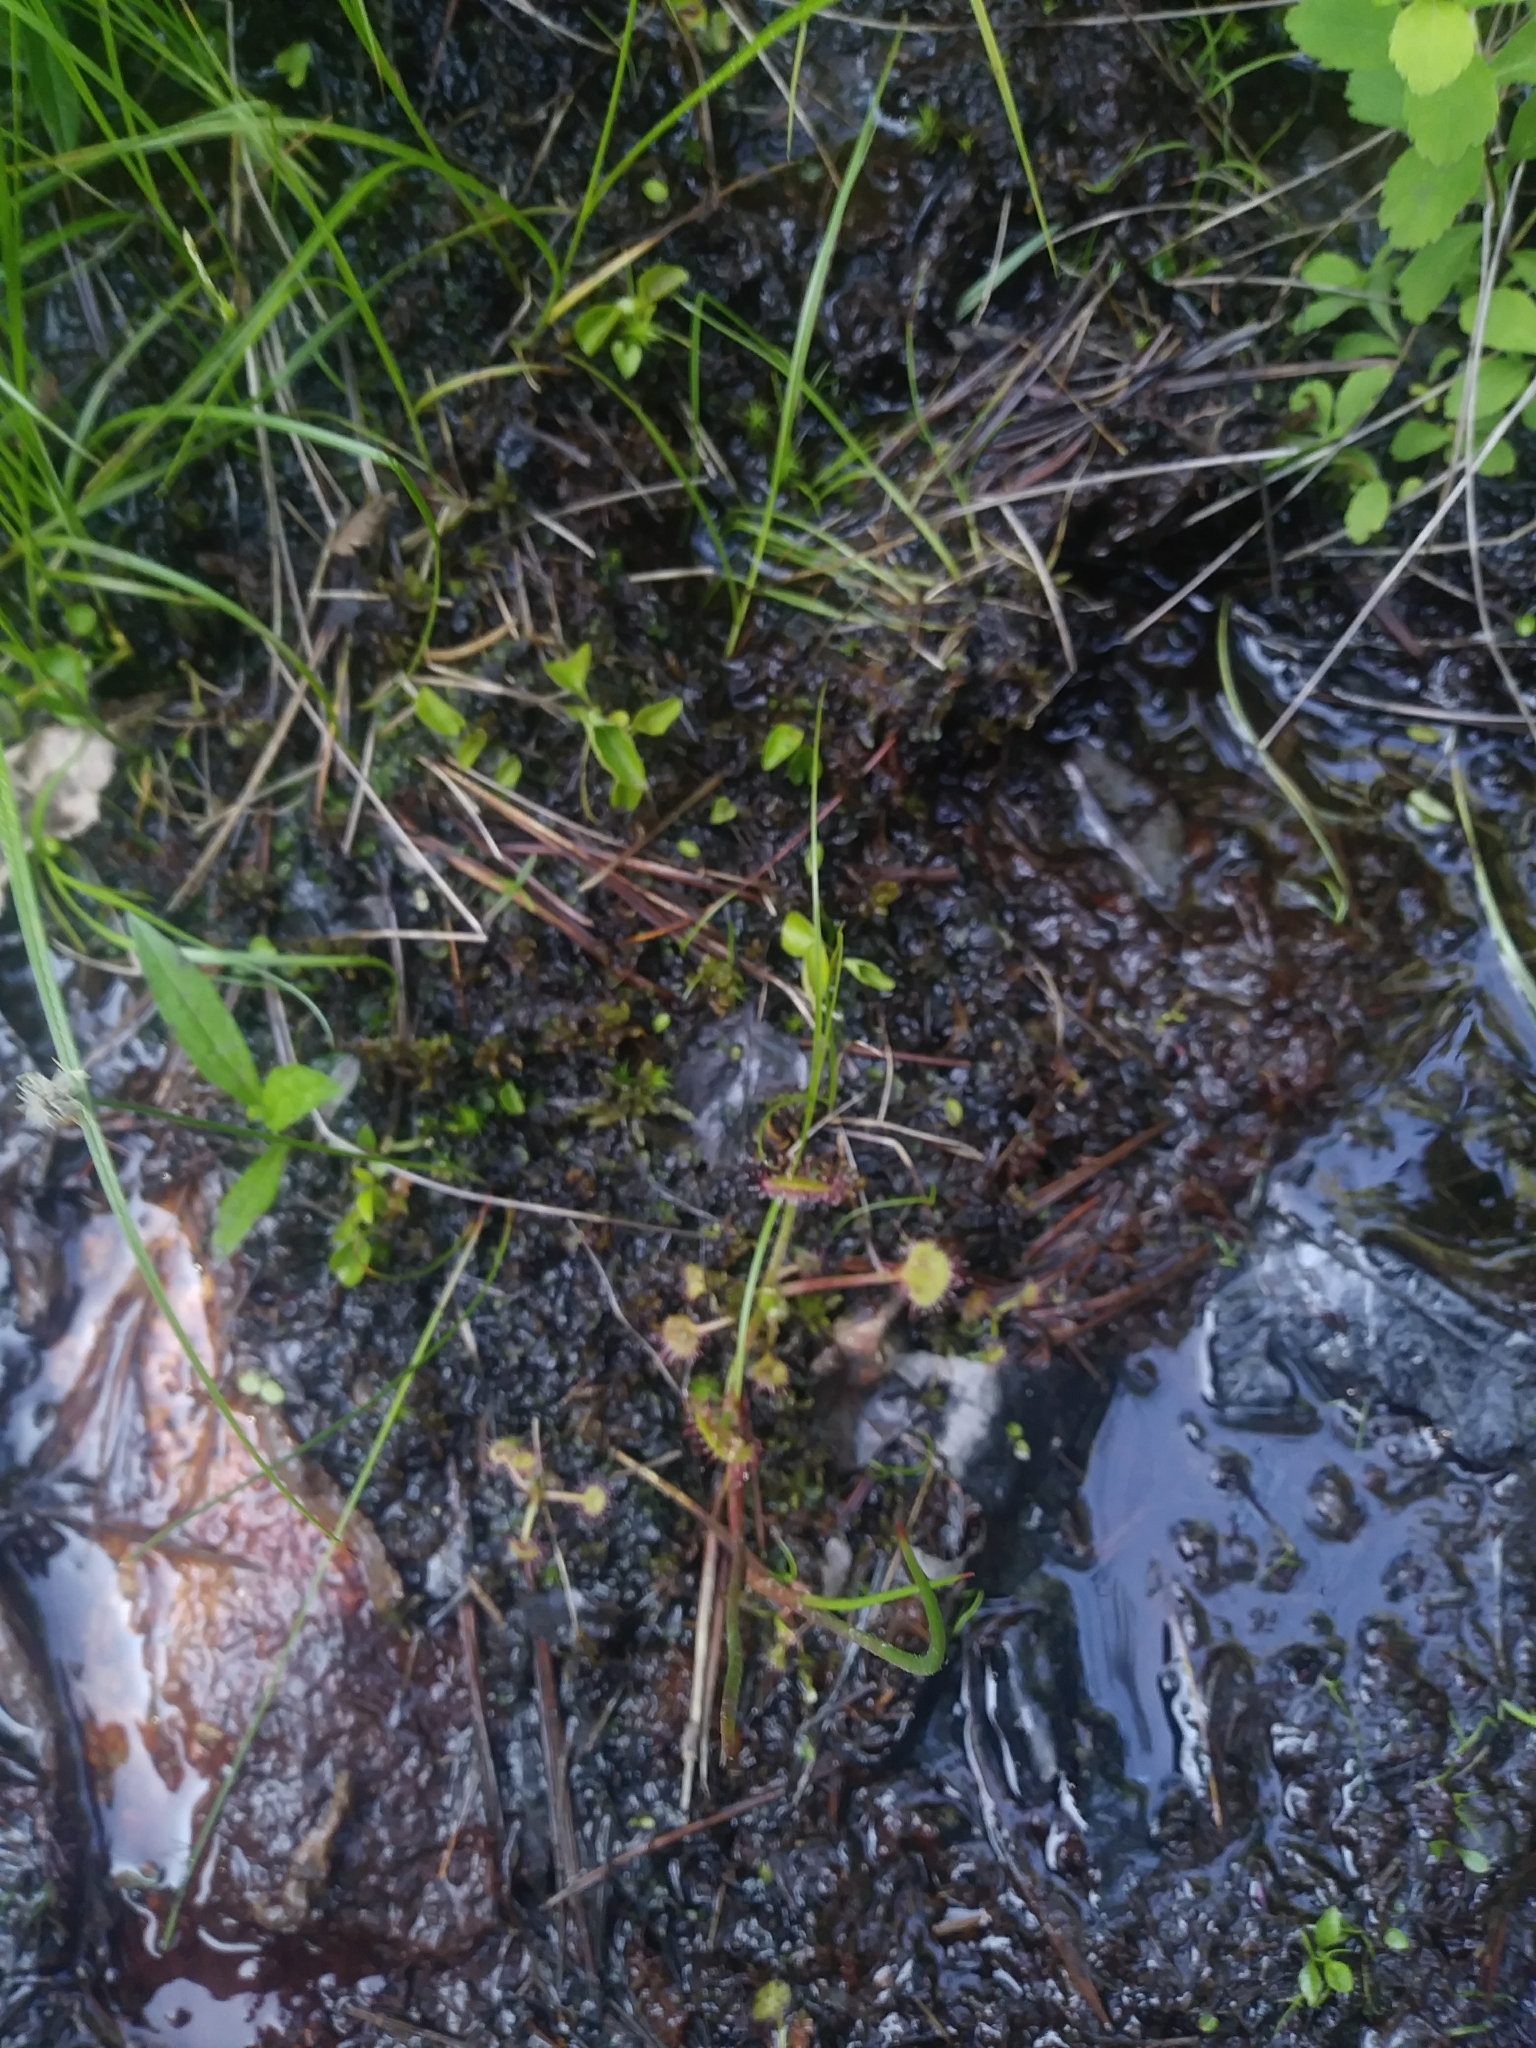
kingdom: Plantae
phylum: Tracheophyta
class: Magnoliopsida
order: Caryophyllales
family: Droseraceae
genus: Drosera
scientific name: Drosera rotundifolia
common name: Round-leaved sundew
